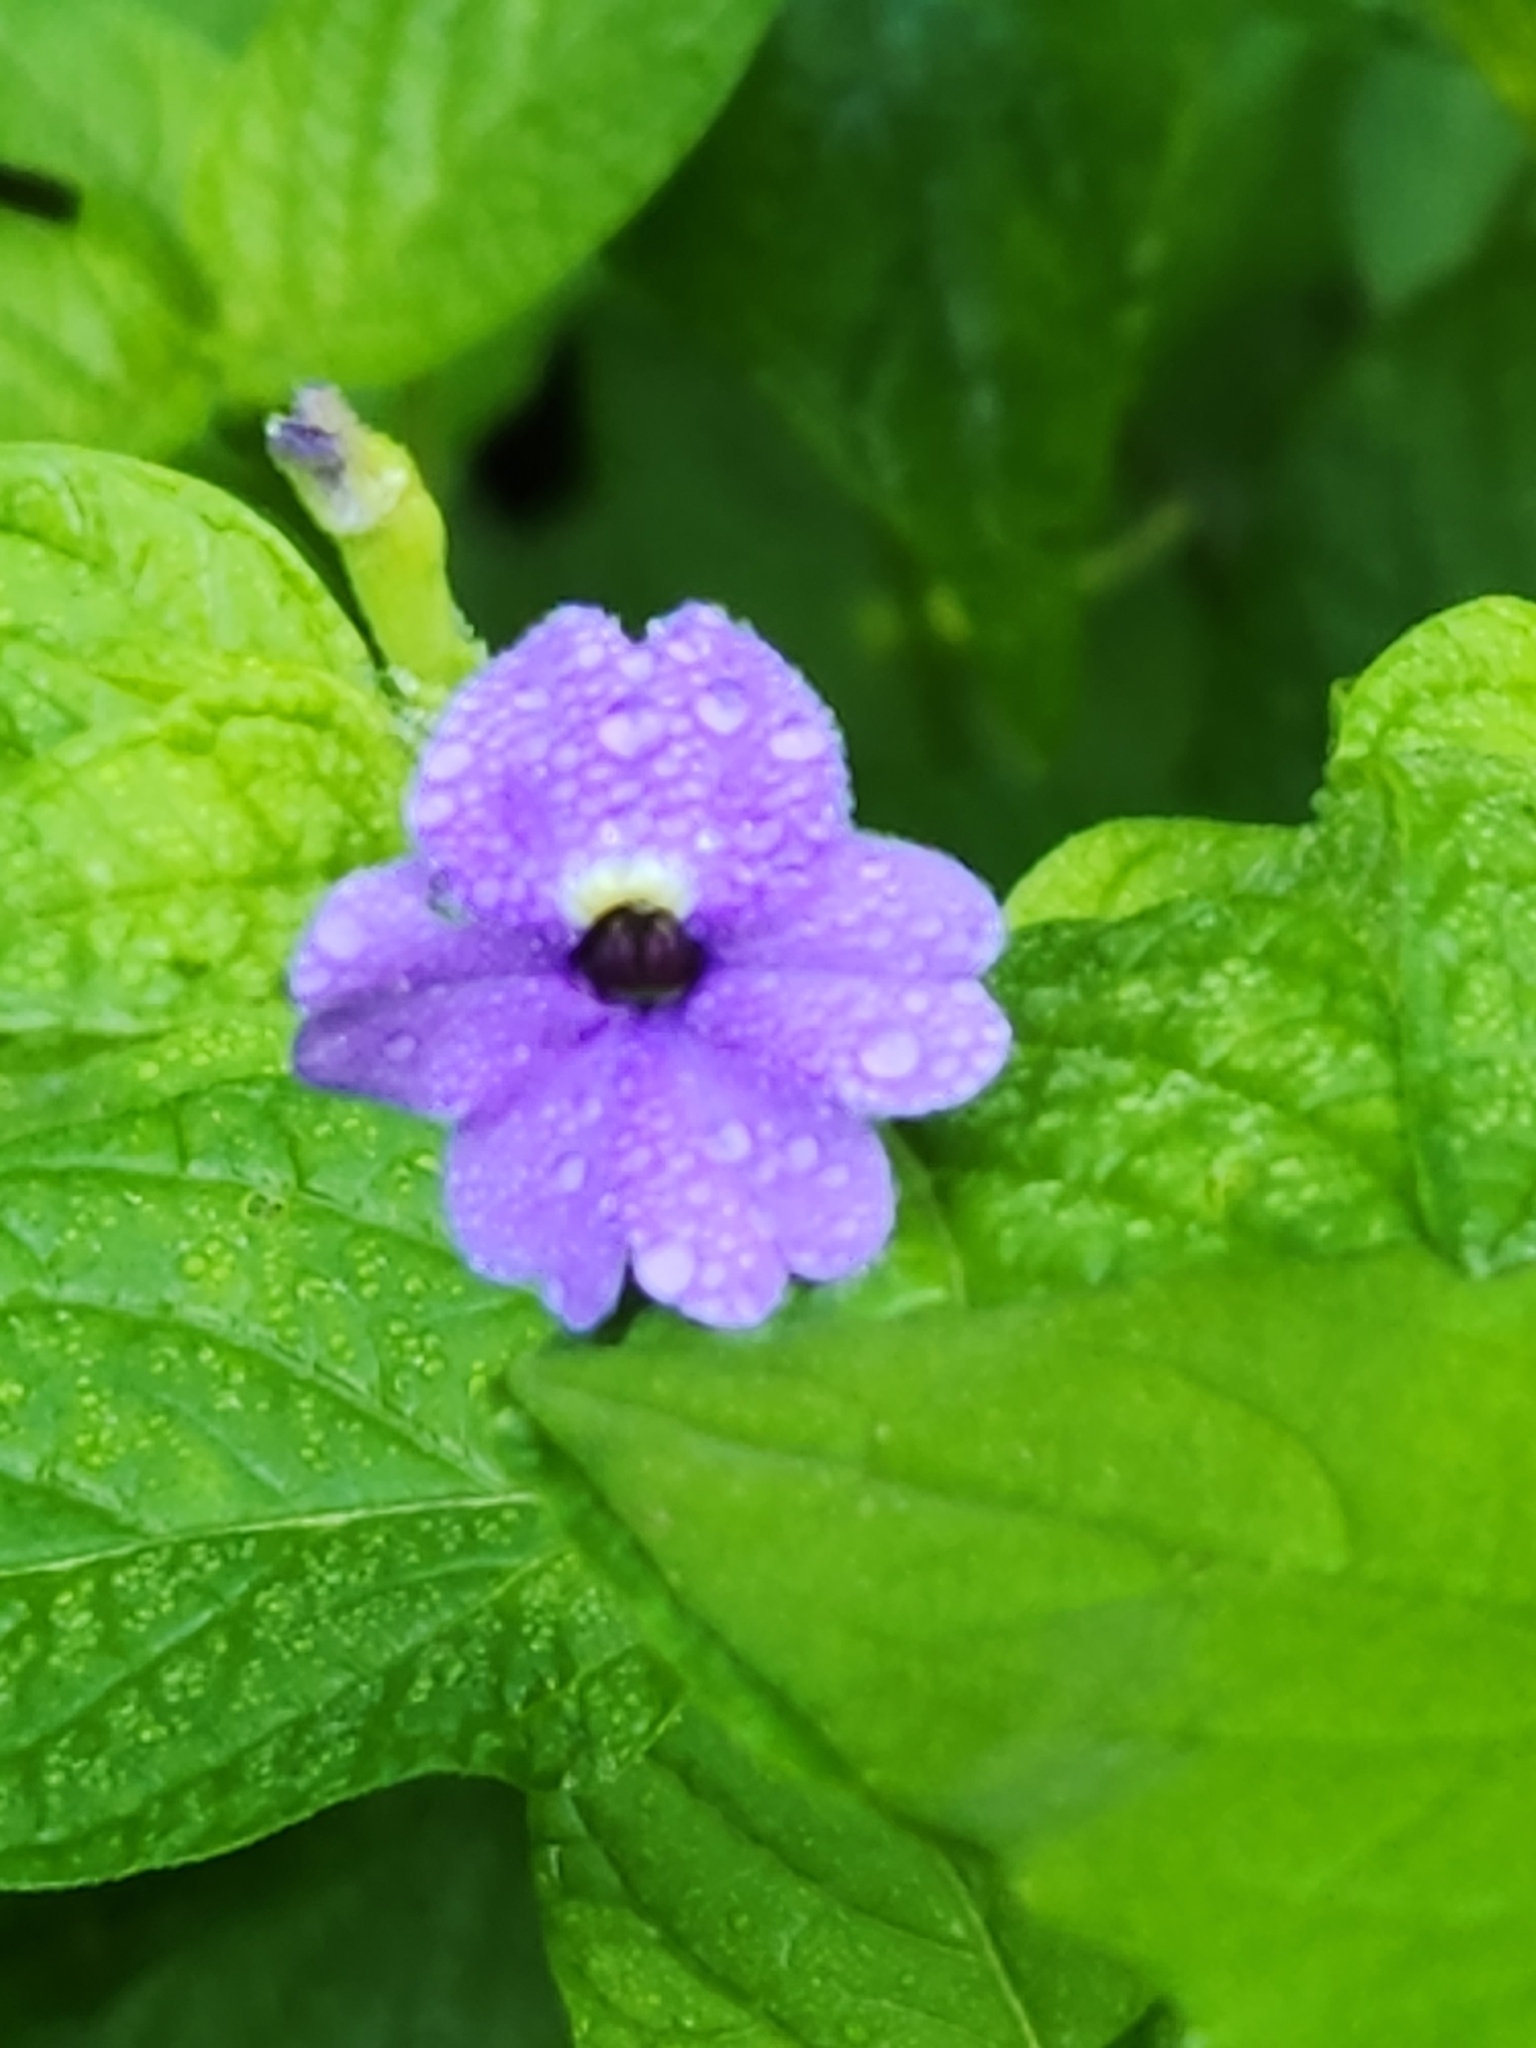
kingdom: Plantae
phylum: Tracheophyta
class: Magnoliopsida
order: Solanales
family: Solanaceae
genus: Browallia
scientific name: Browallia americana
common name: Jamaican forget-me-not
